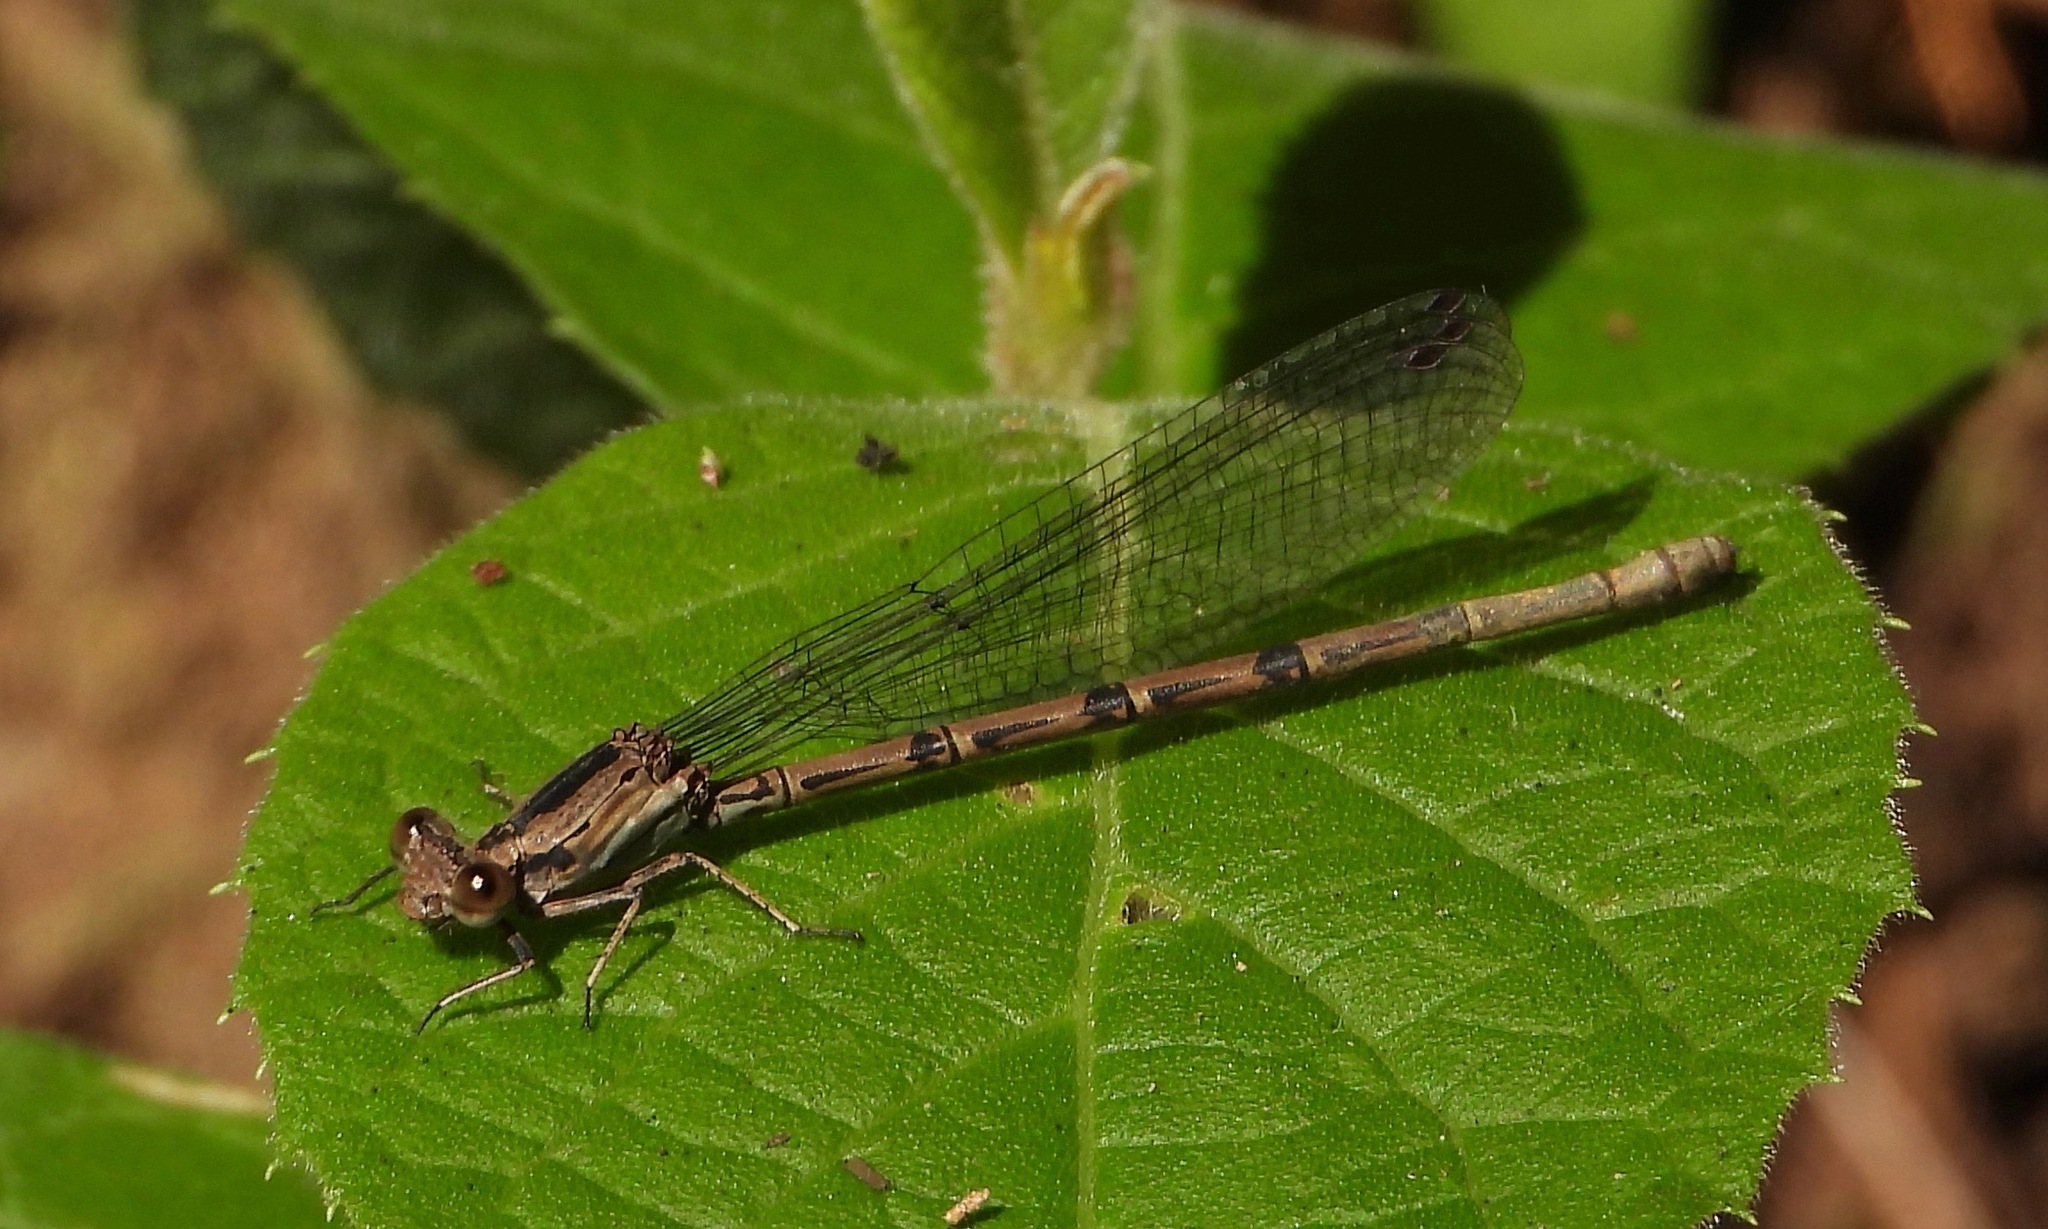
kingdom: Animalia
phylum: Arthropoda
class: Insecta
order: Odonata
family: Coenagrionidae
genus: Argia
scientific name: Argia anceps
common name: Cerulean dancer
